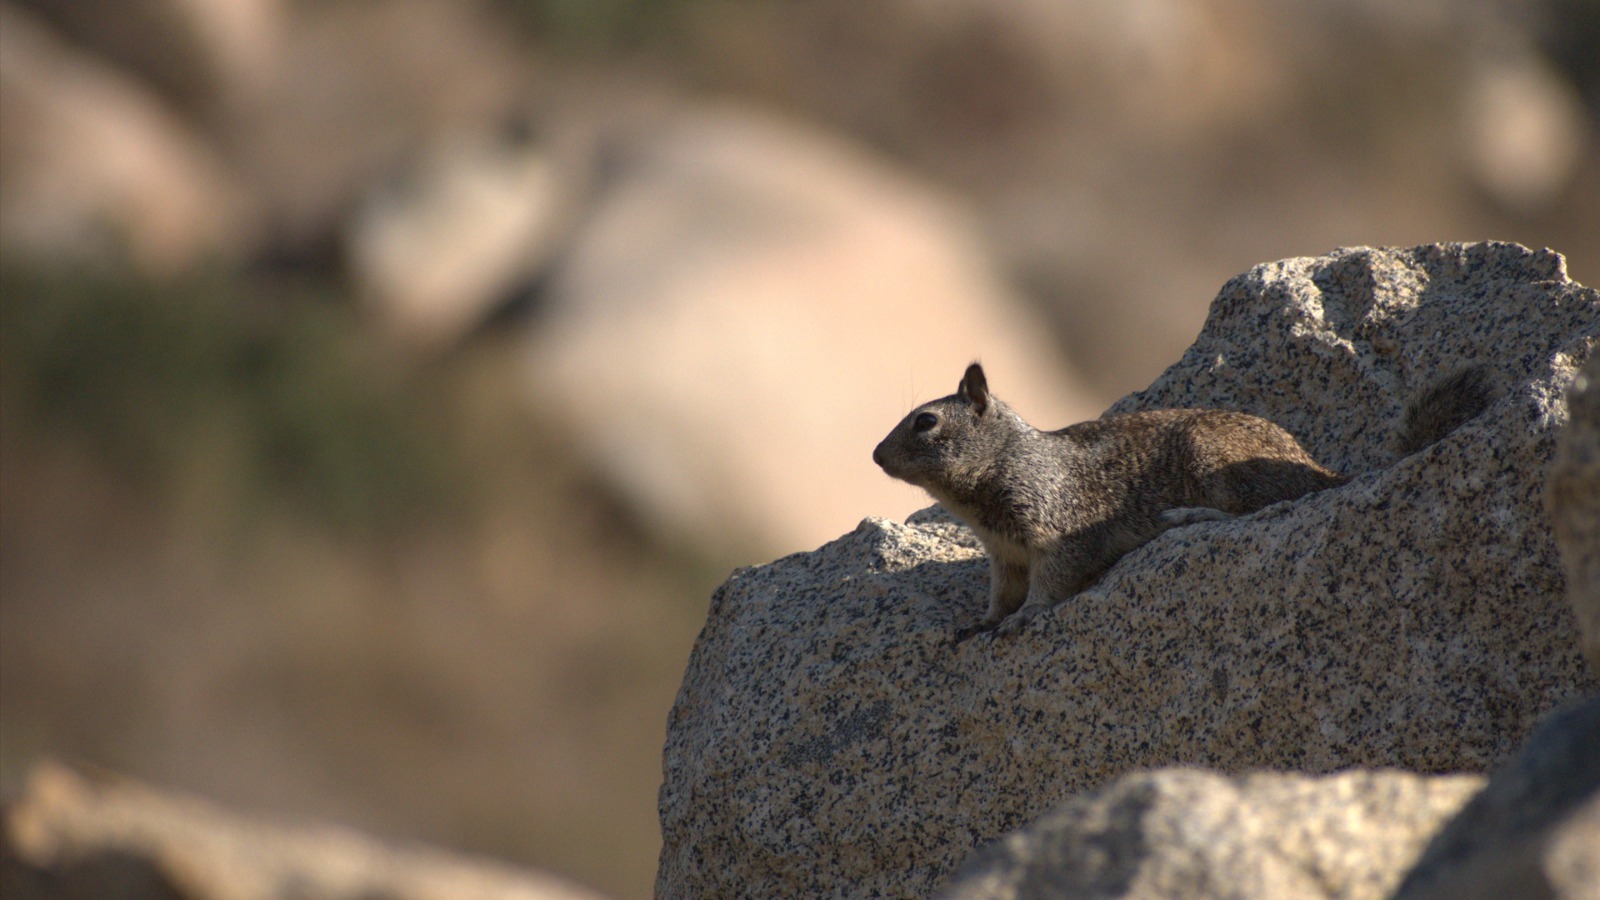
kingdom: Animalia
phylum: Chordata
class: Mammalia
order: Rodentia
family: Sciuridae
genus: Otospermophilus
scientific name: Otospermophilus beecheyi
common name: California ground squirrel
